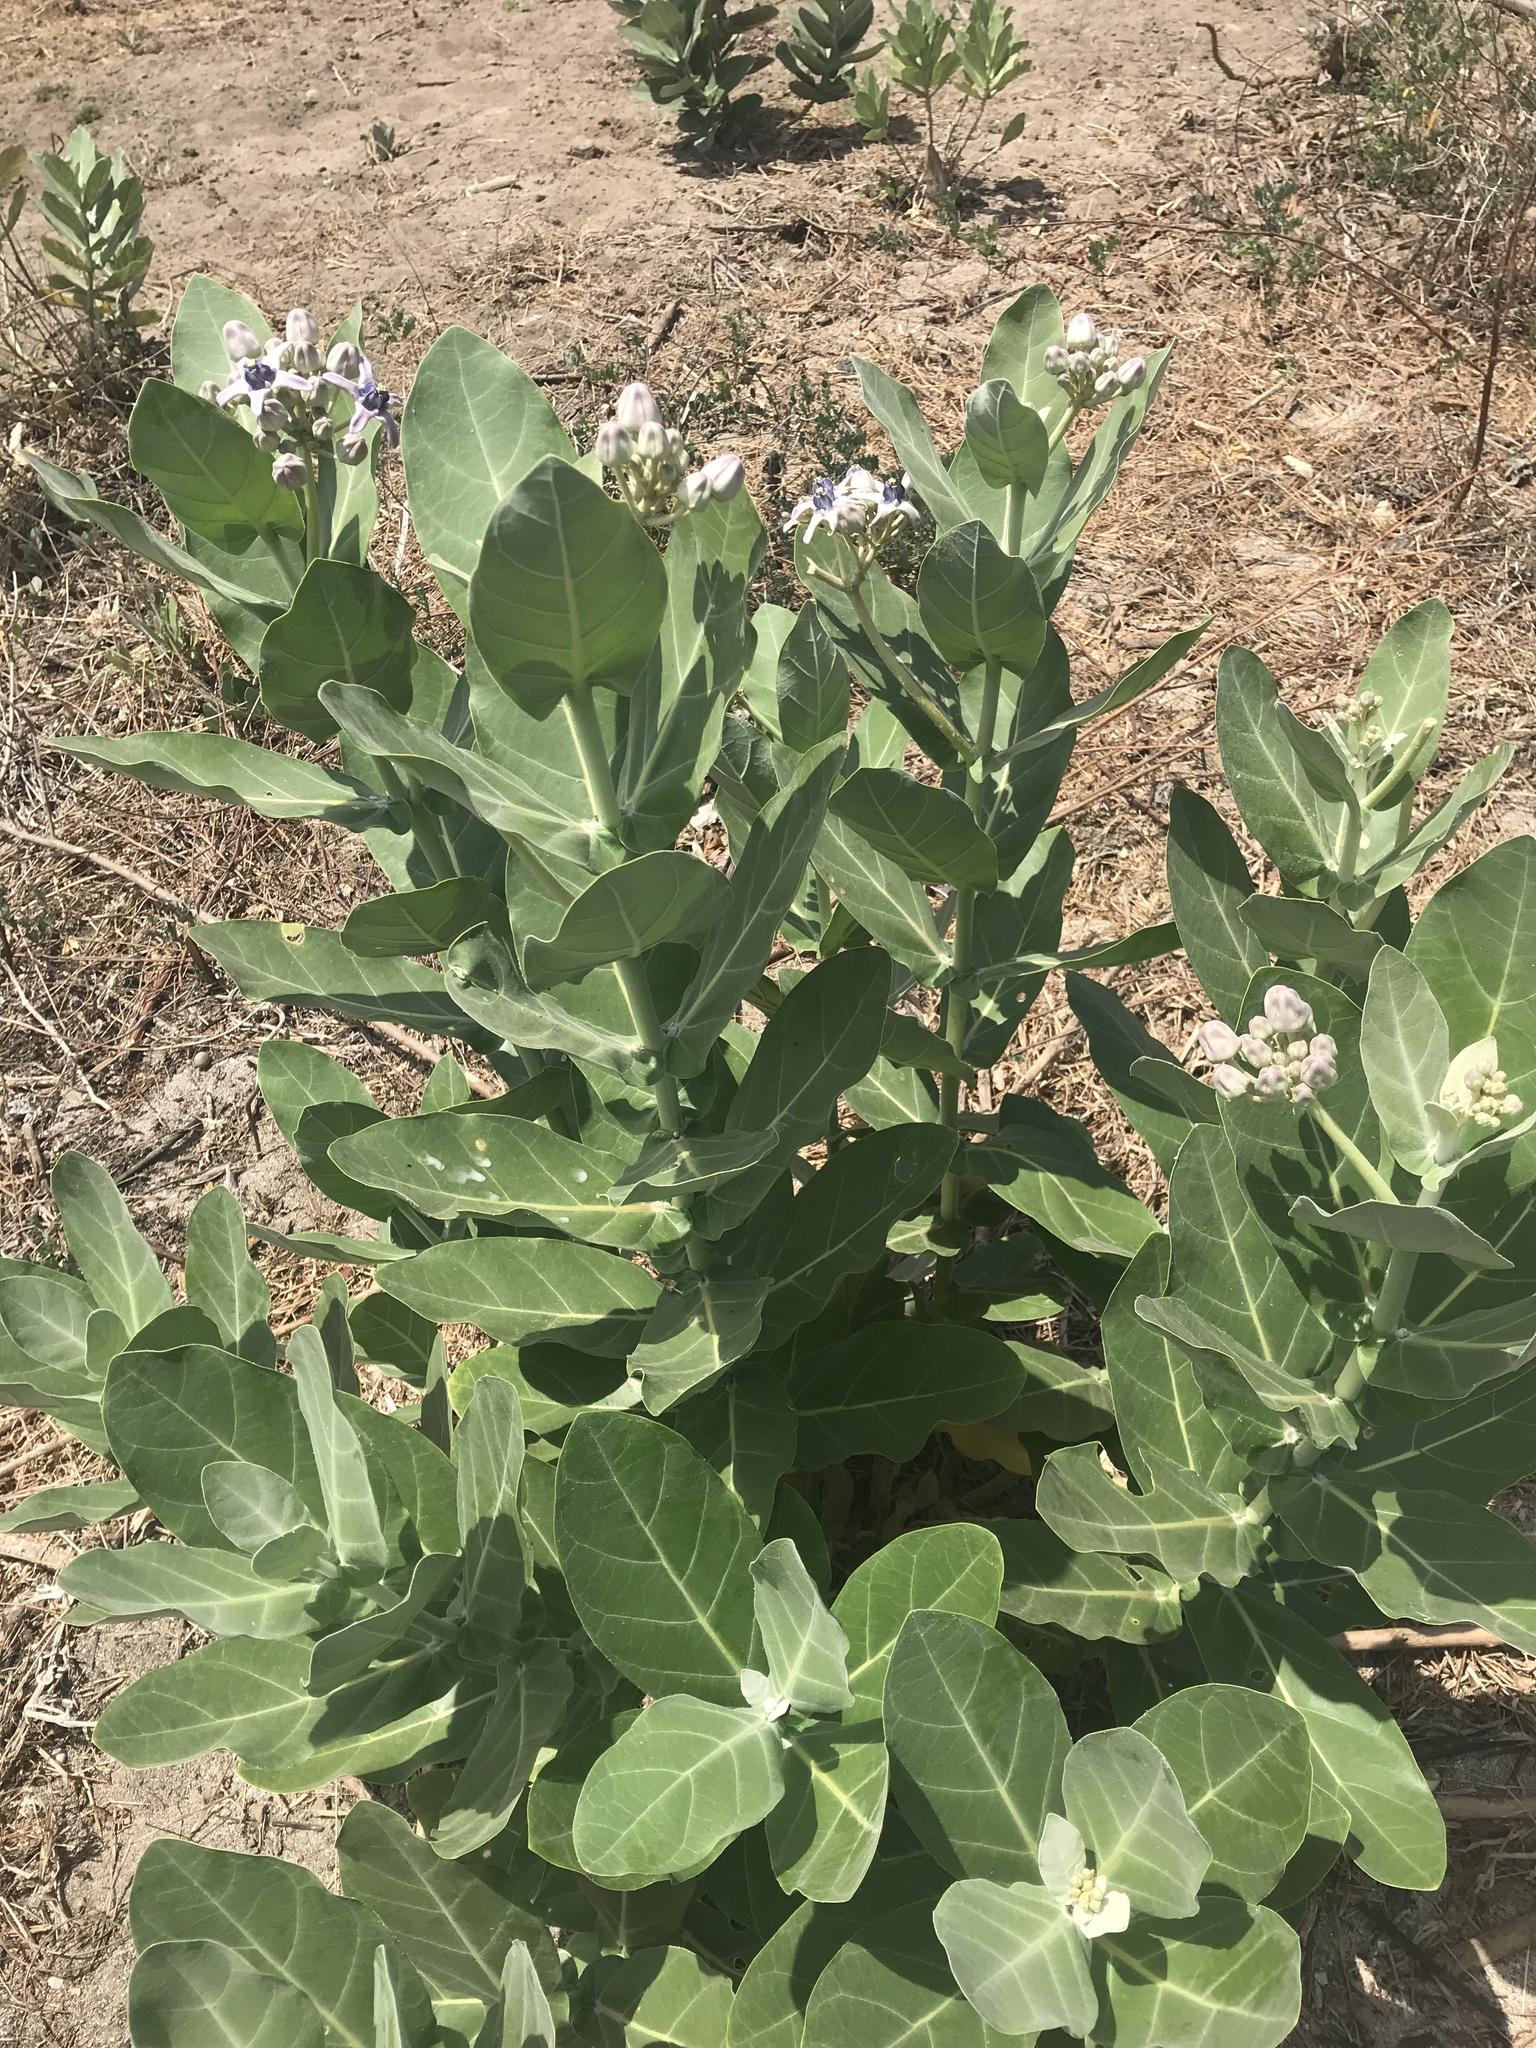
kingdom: Plantae
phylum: Tracheophyta
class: Magnoliopsida
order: Gentianales
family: Apocynaceae
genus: Calotropis
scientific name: Calotropis gigantea
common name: Crown flower
